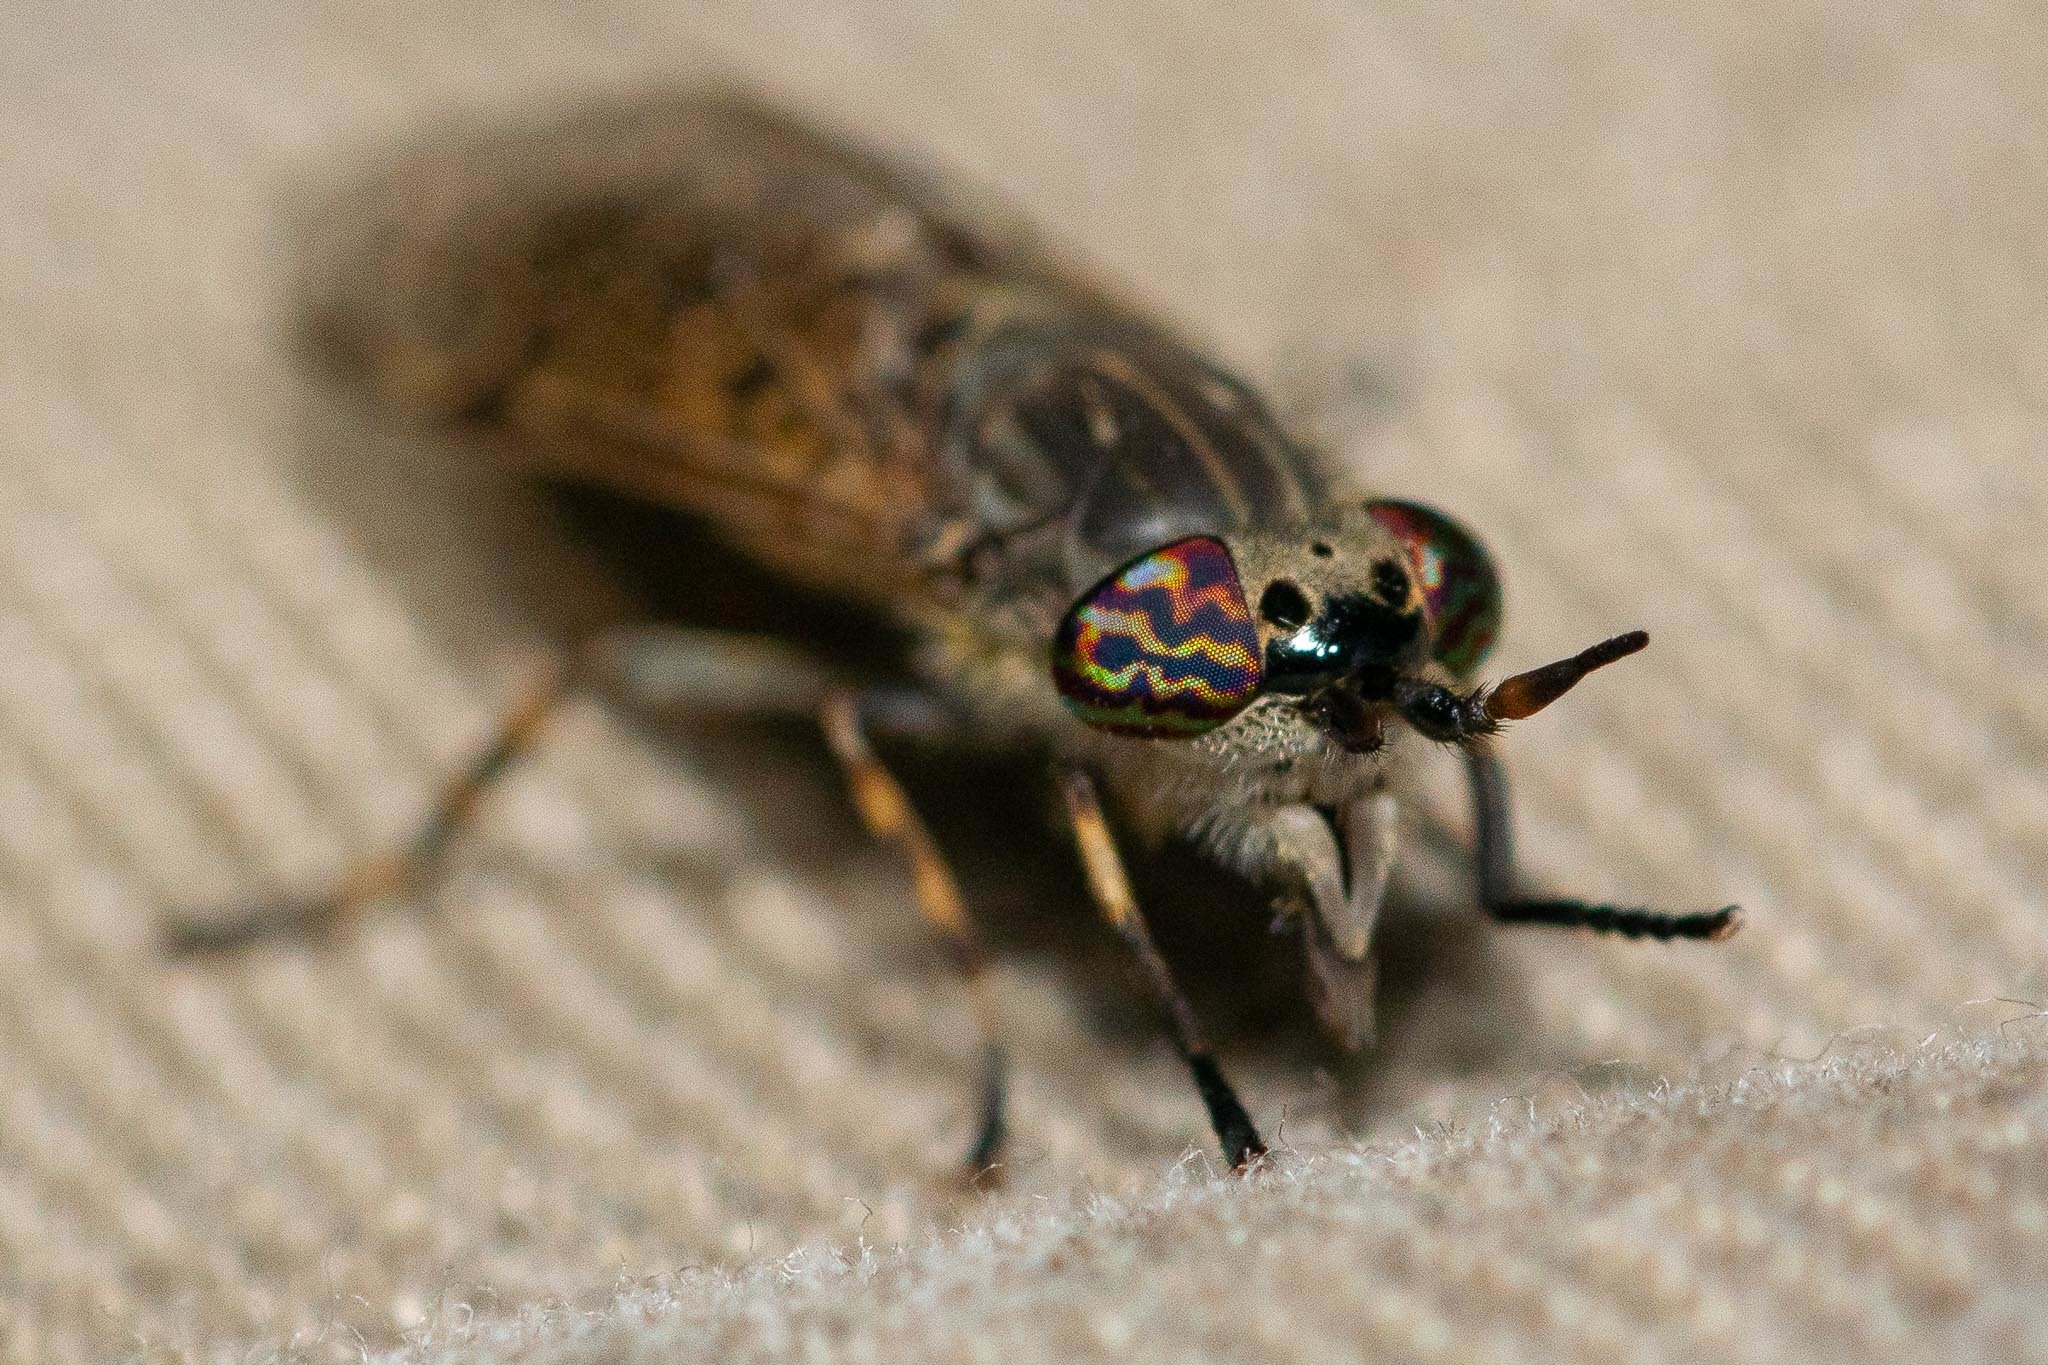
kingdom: Animalia
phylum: Arthropoda
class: Insecta
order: Diptera
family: Tabanidae
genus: Haematopota
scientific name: Haematopota pluvialis
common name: Common horse fly
